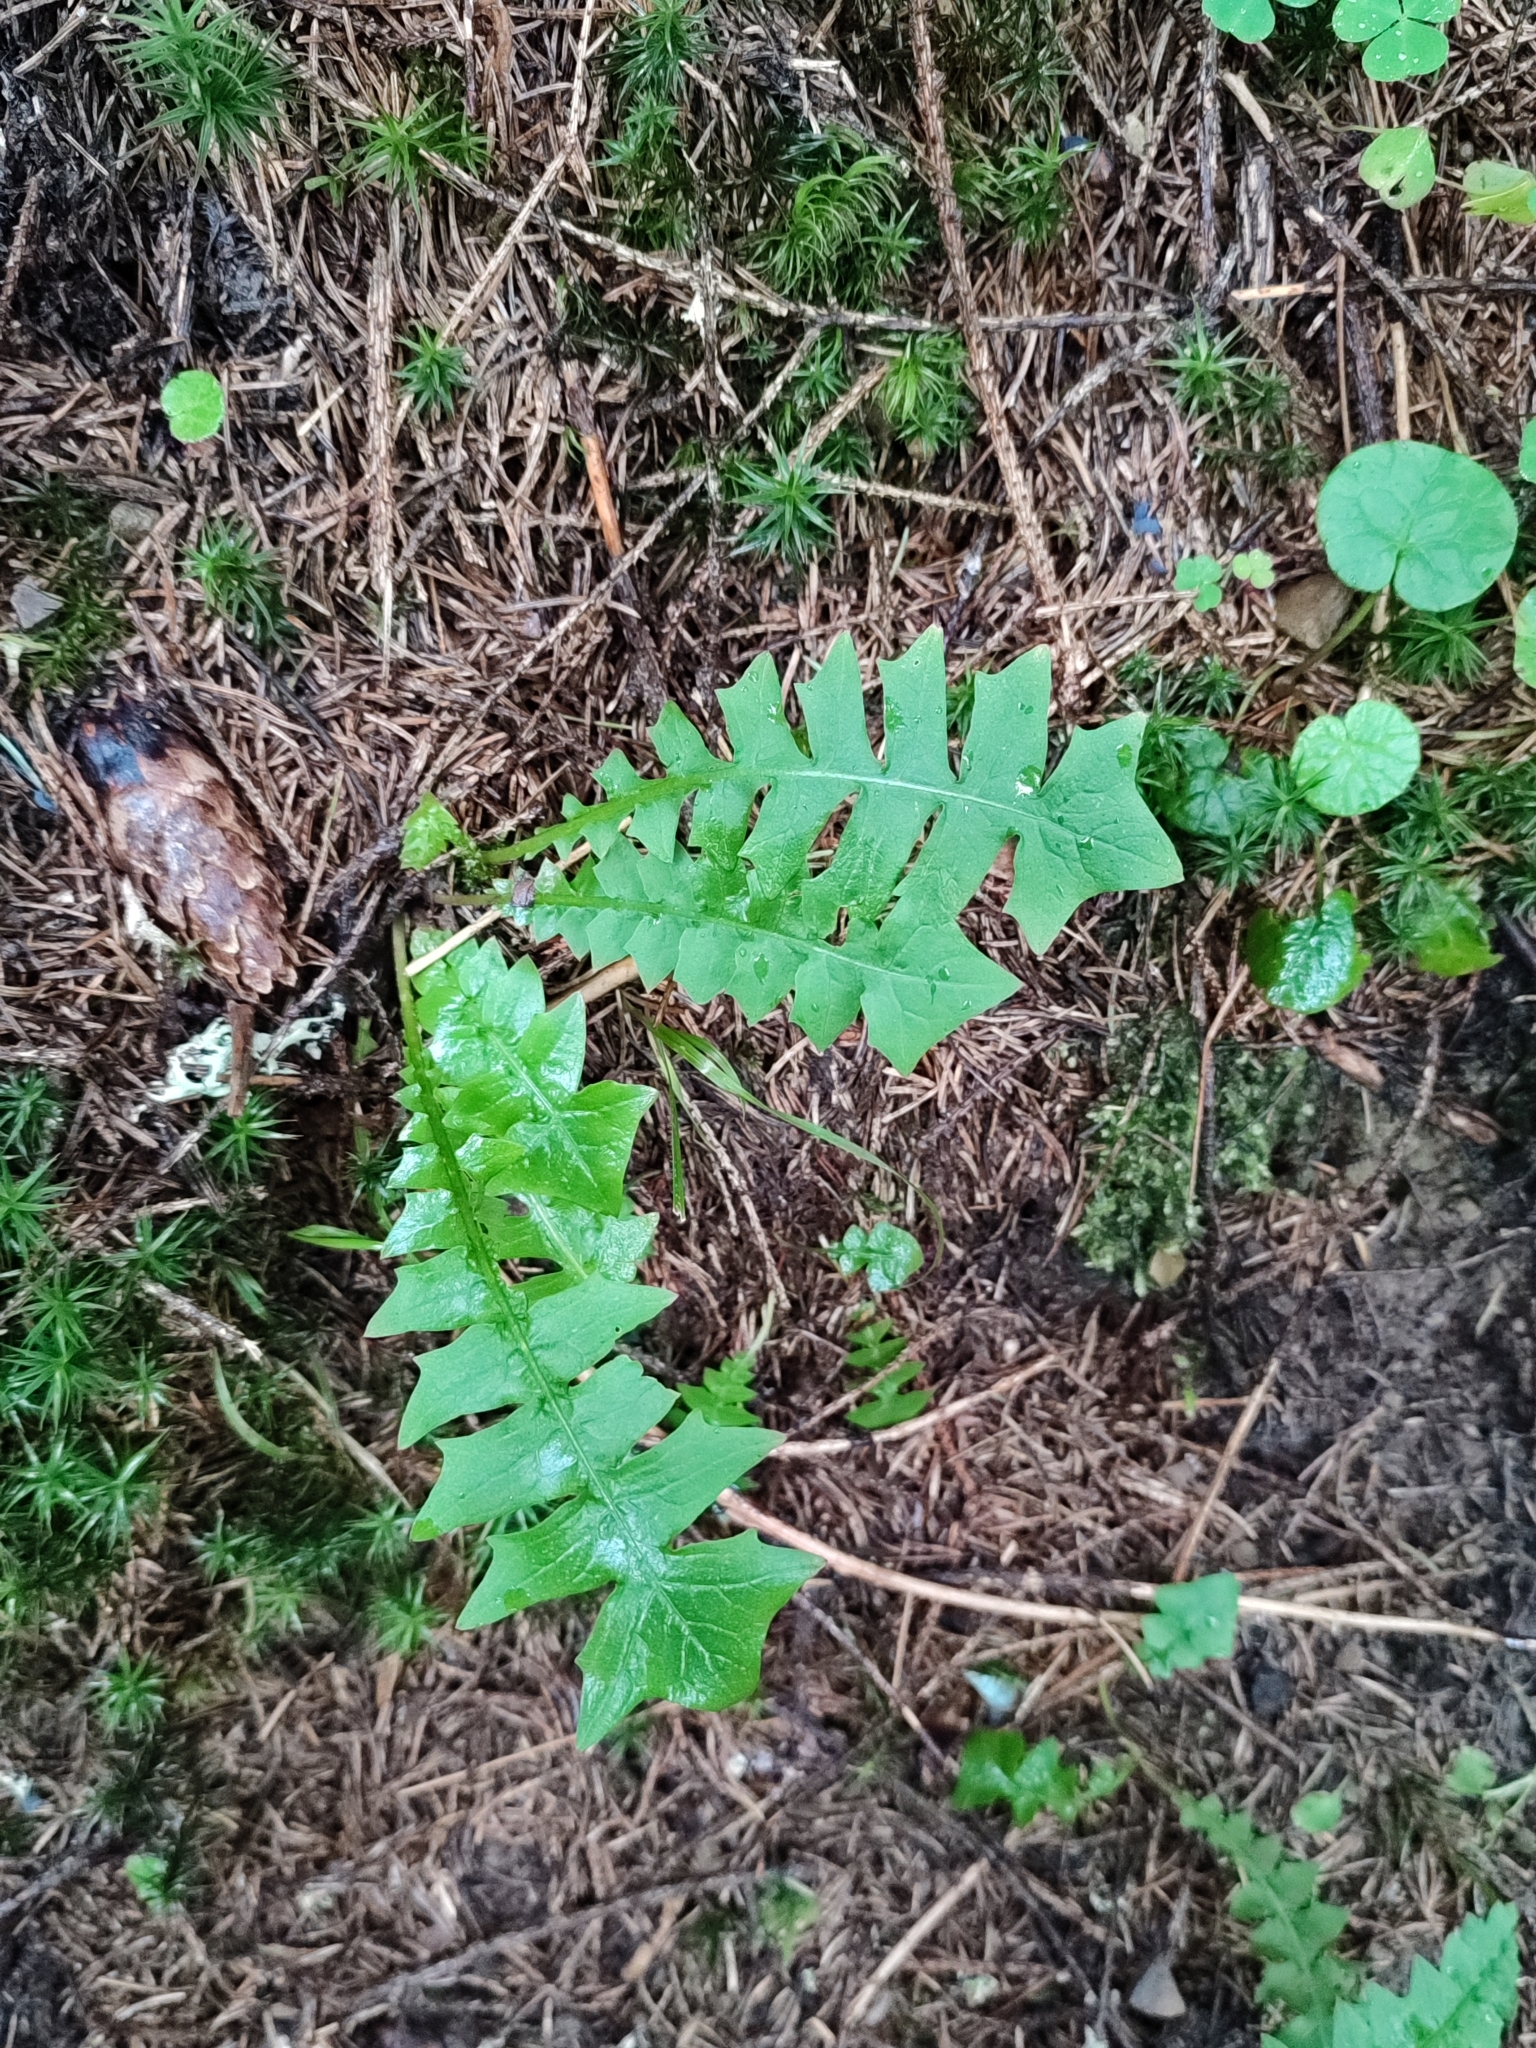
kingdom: Plantae
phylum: Tracheophyta
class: Magnoliopsida
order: Asterales
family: Asteraceae
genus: Aposeris
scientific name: Aposeris foetida
